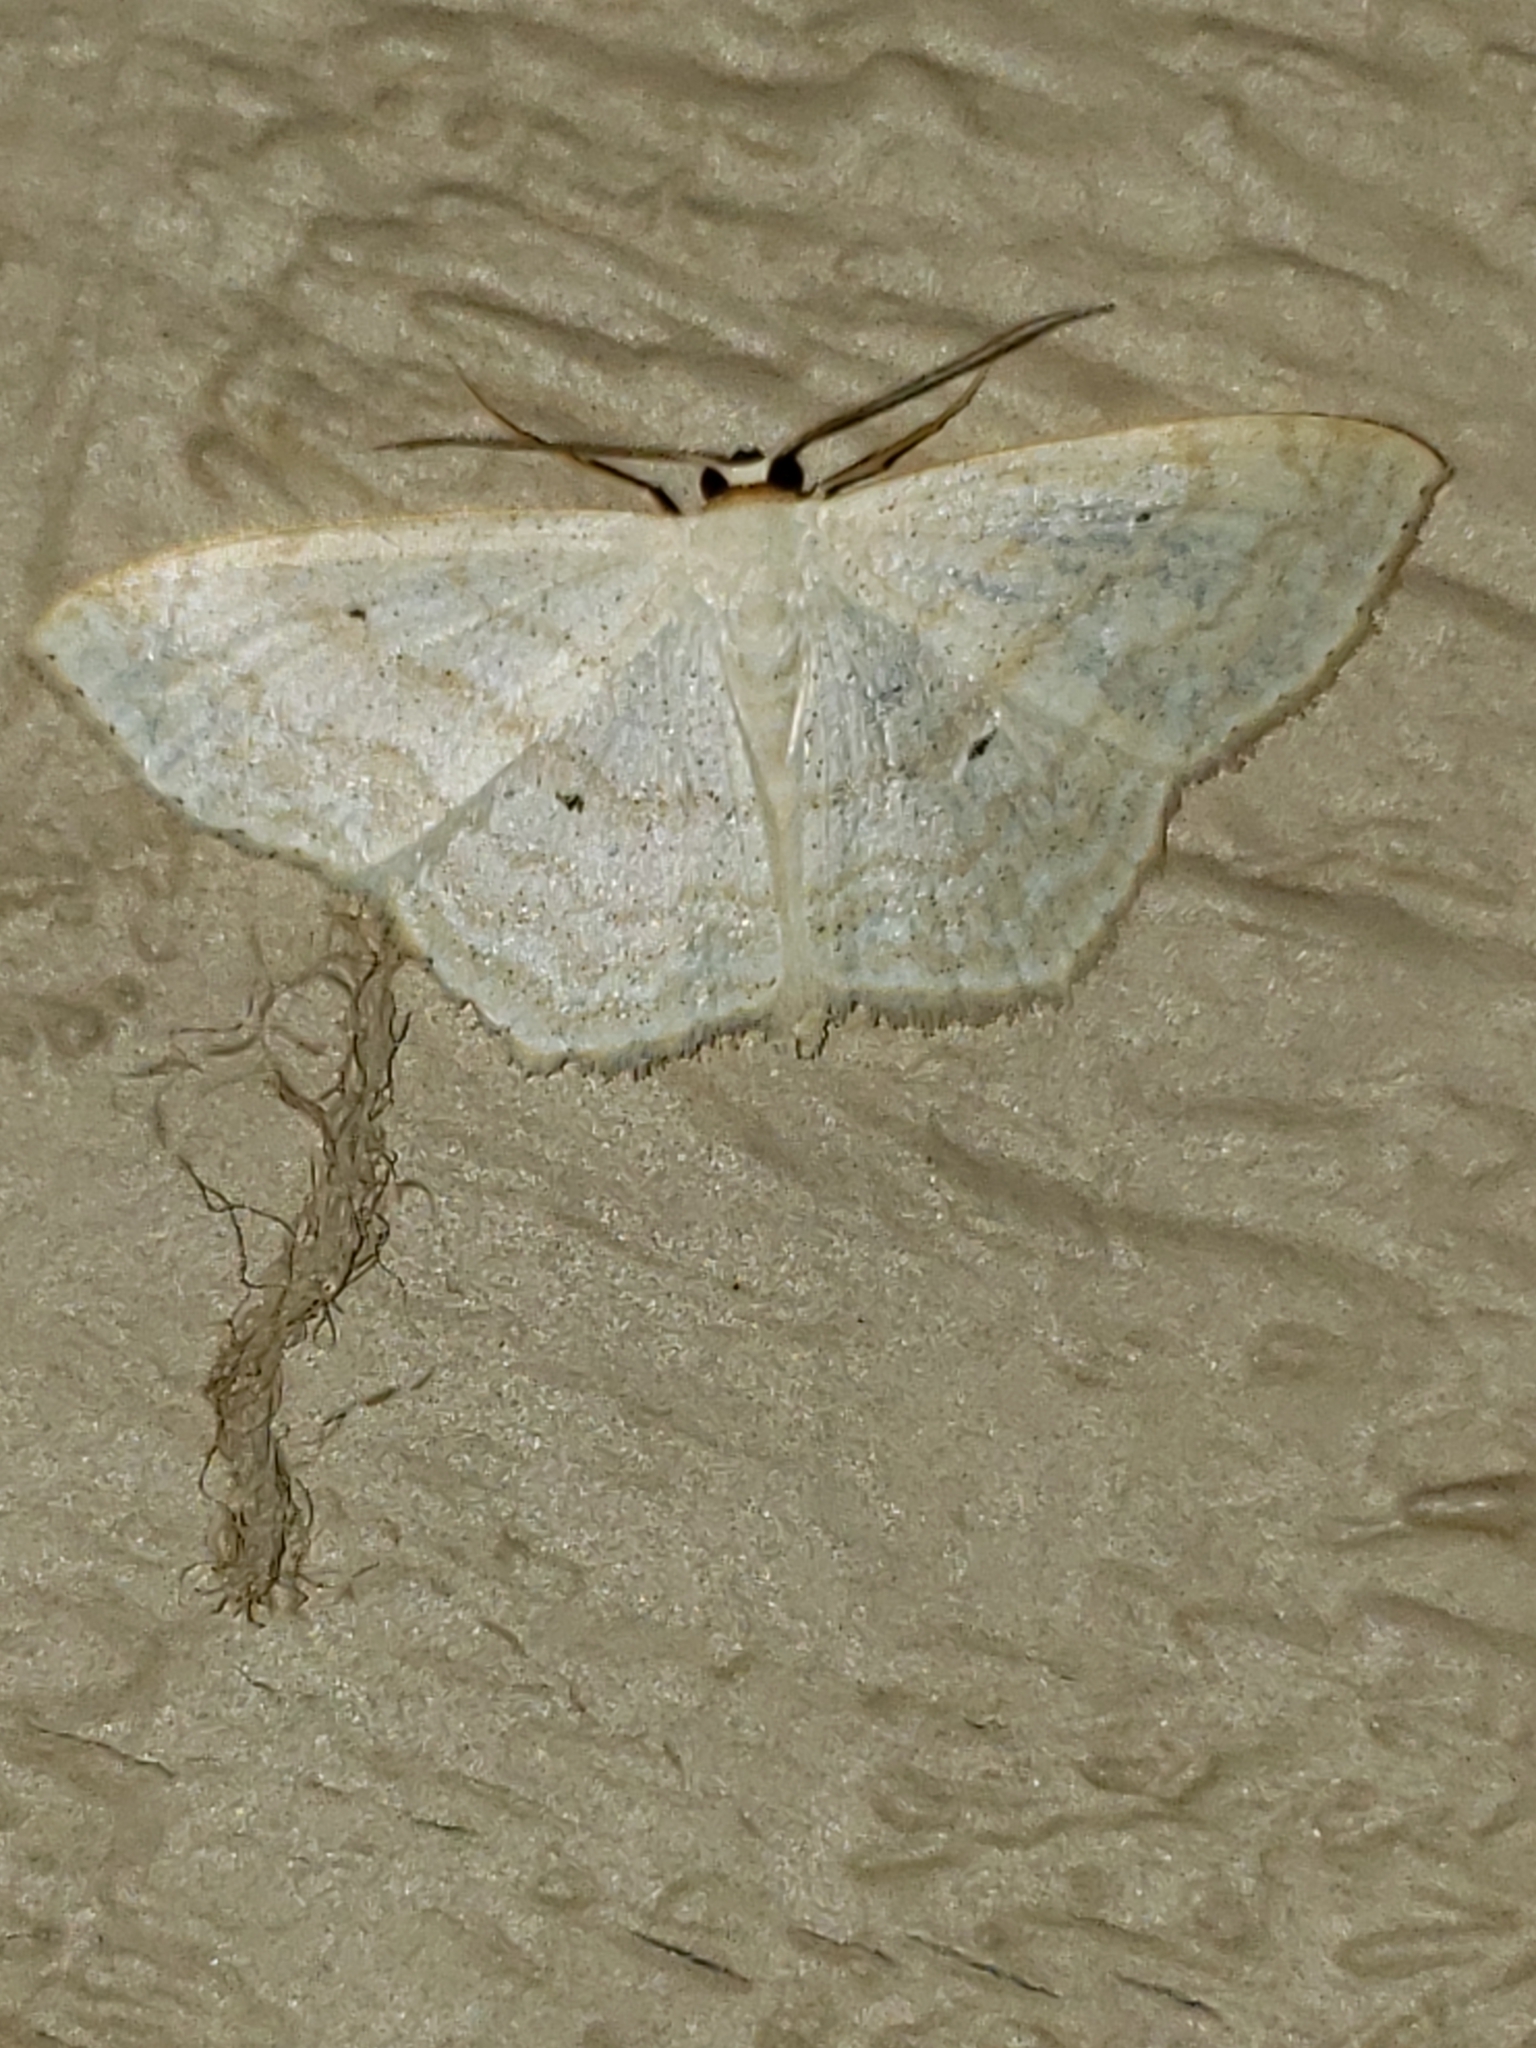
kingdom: Animalia
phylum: Arthropoda
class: Insecta
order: Lepidoptera
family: Geometridae
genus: Scopula
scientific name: Scopula limboundata
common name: Large lace border
